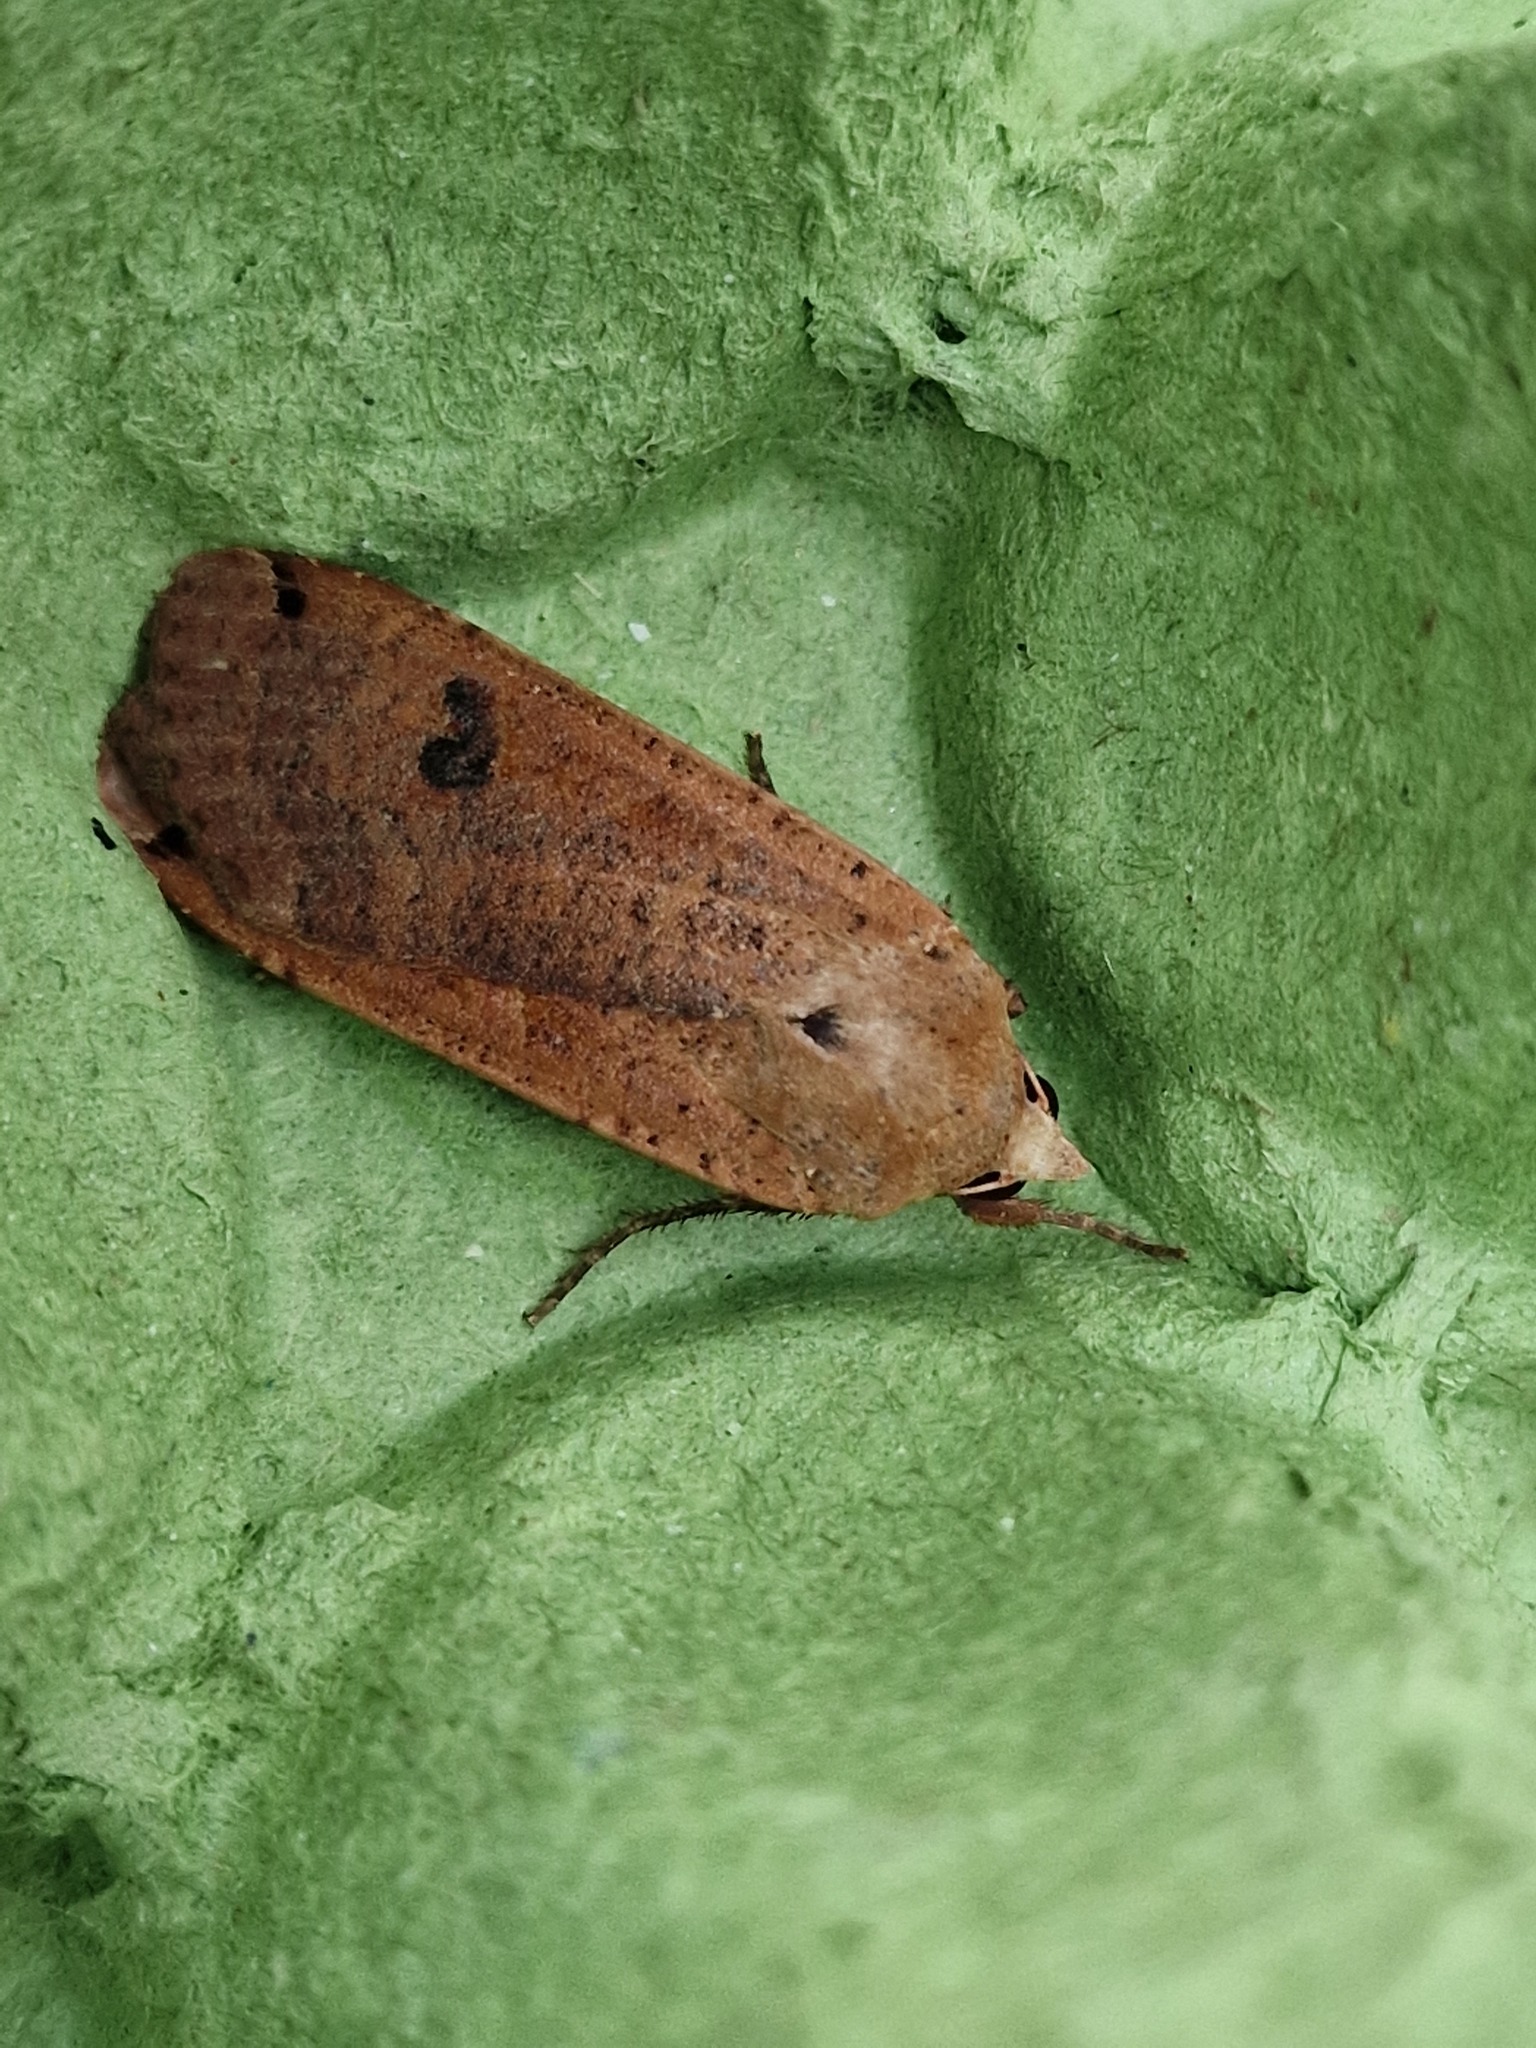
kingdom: Animalia
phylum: Arthropoda
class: Insecta
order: Lepidoptera
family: Noctuidae
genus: Noctua
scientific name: Noctua pronuba
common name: Large yellow underwing
